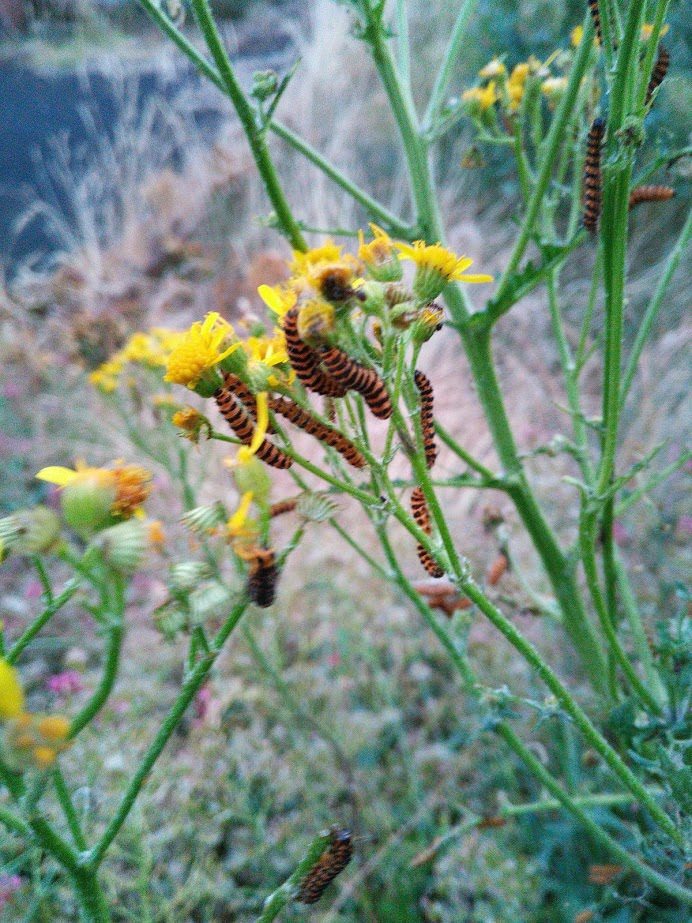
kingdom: Animalia
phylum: Arthropoda
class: Insecta
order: Lepidoptera
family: Erebidae
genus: Tyria
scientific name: Tyria jacobaeae
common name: Cinnabar
